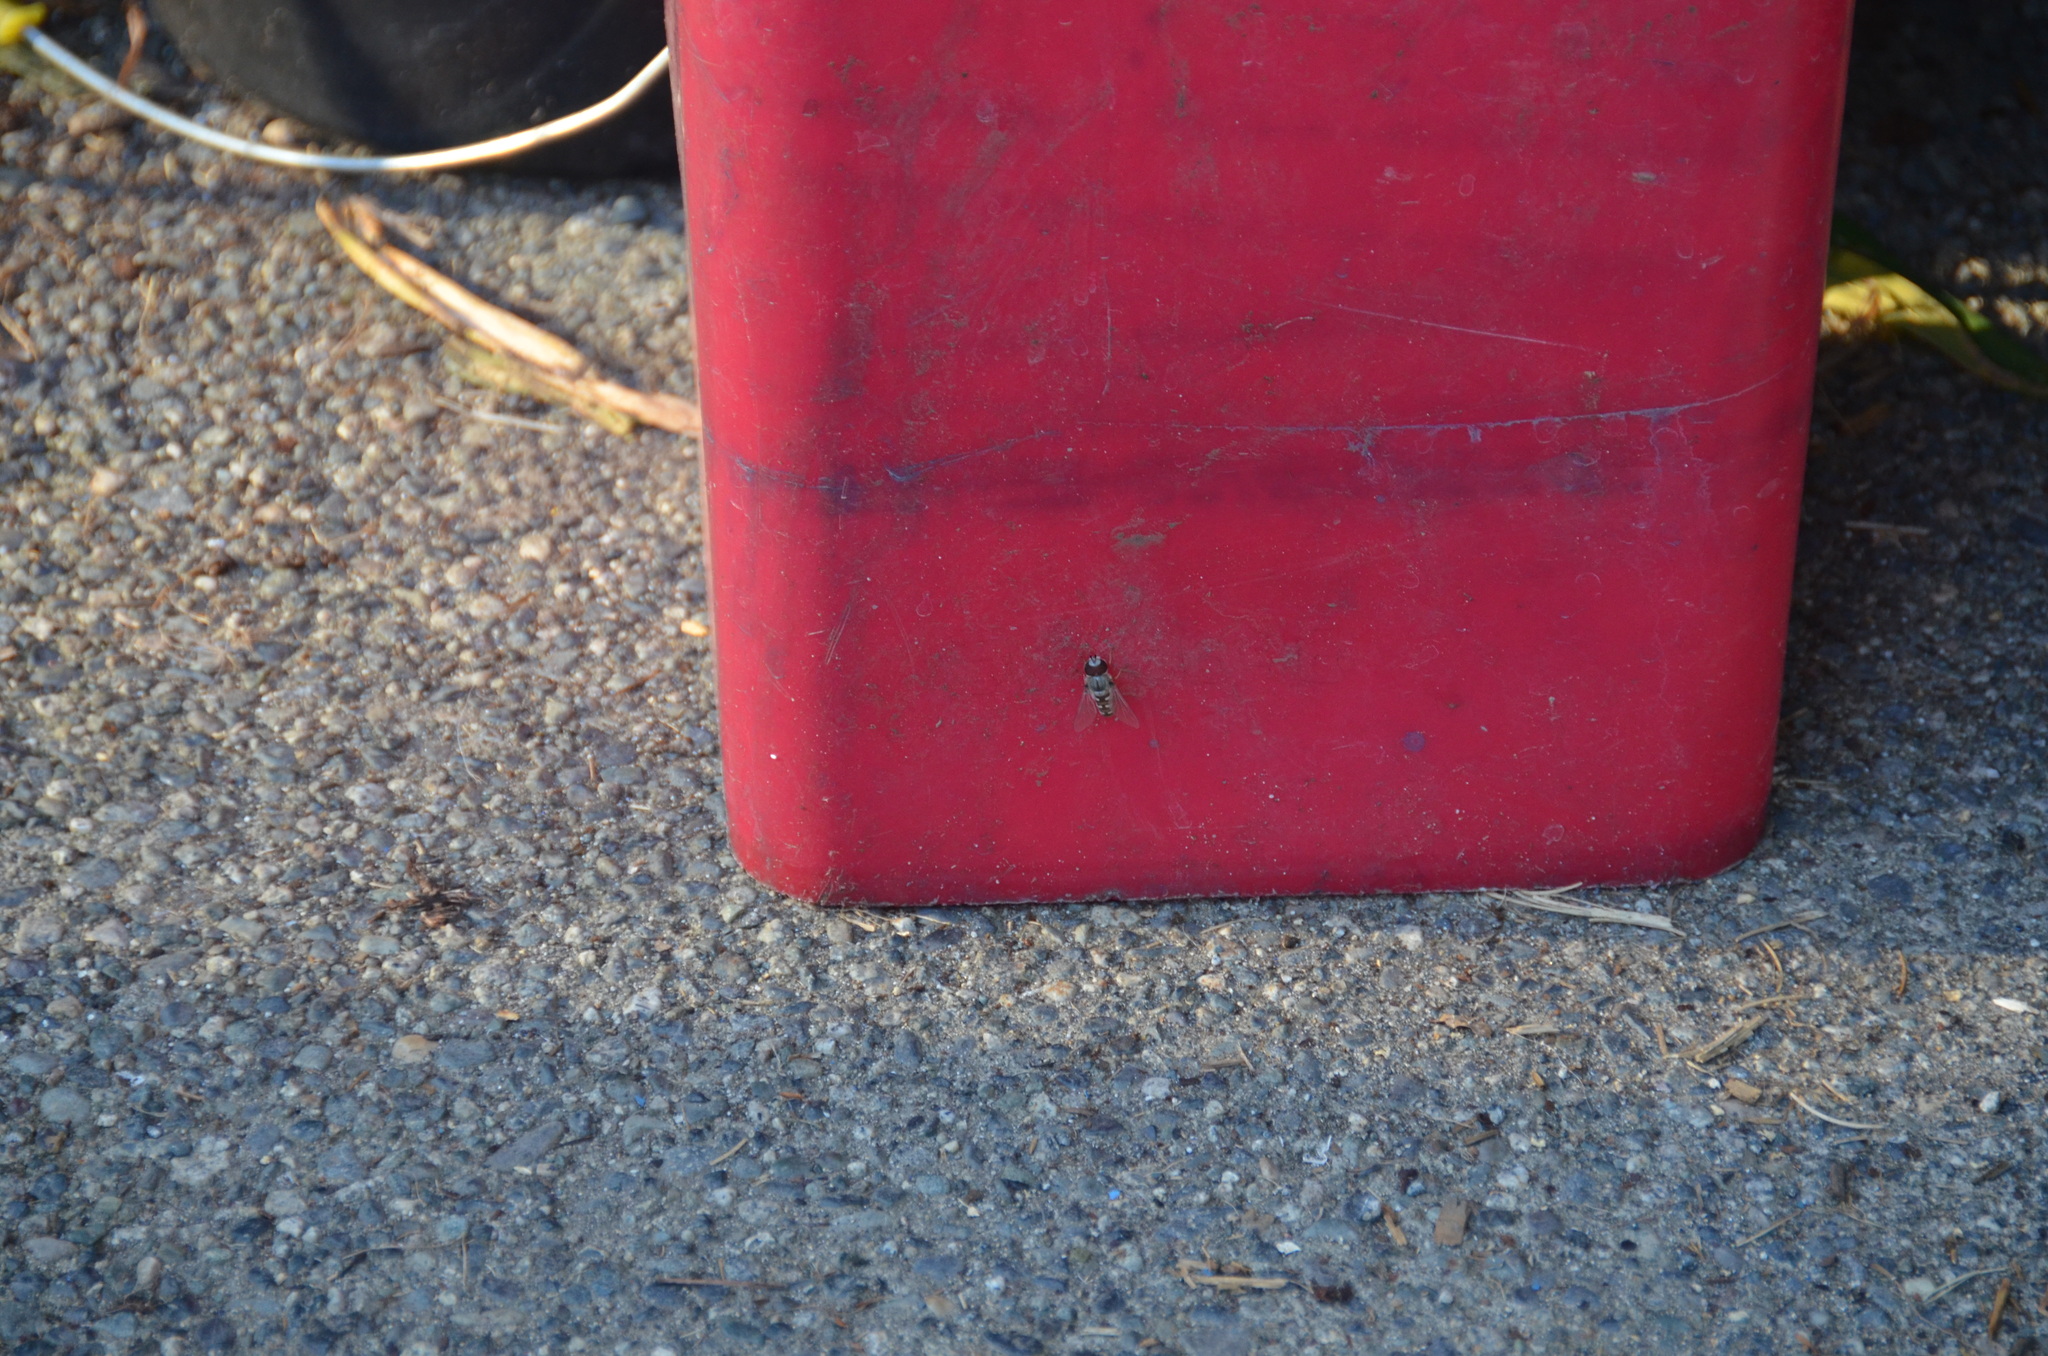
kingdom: Animalia
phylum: Arthropoda
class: Insecta
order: Diptera
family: Syrphidae
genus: Scaeva
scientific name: Scaeva affinis
